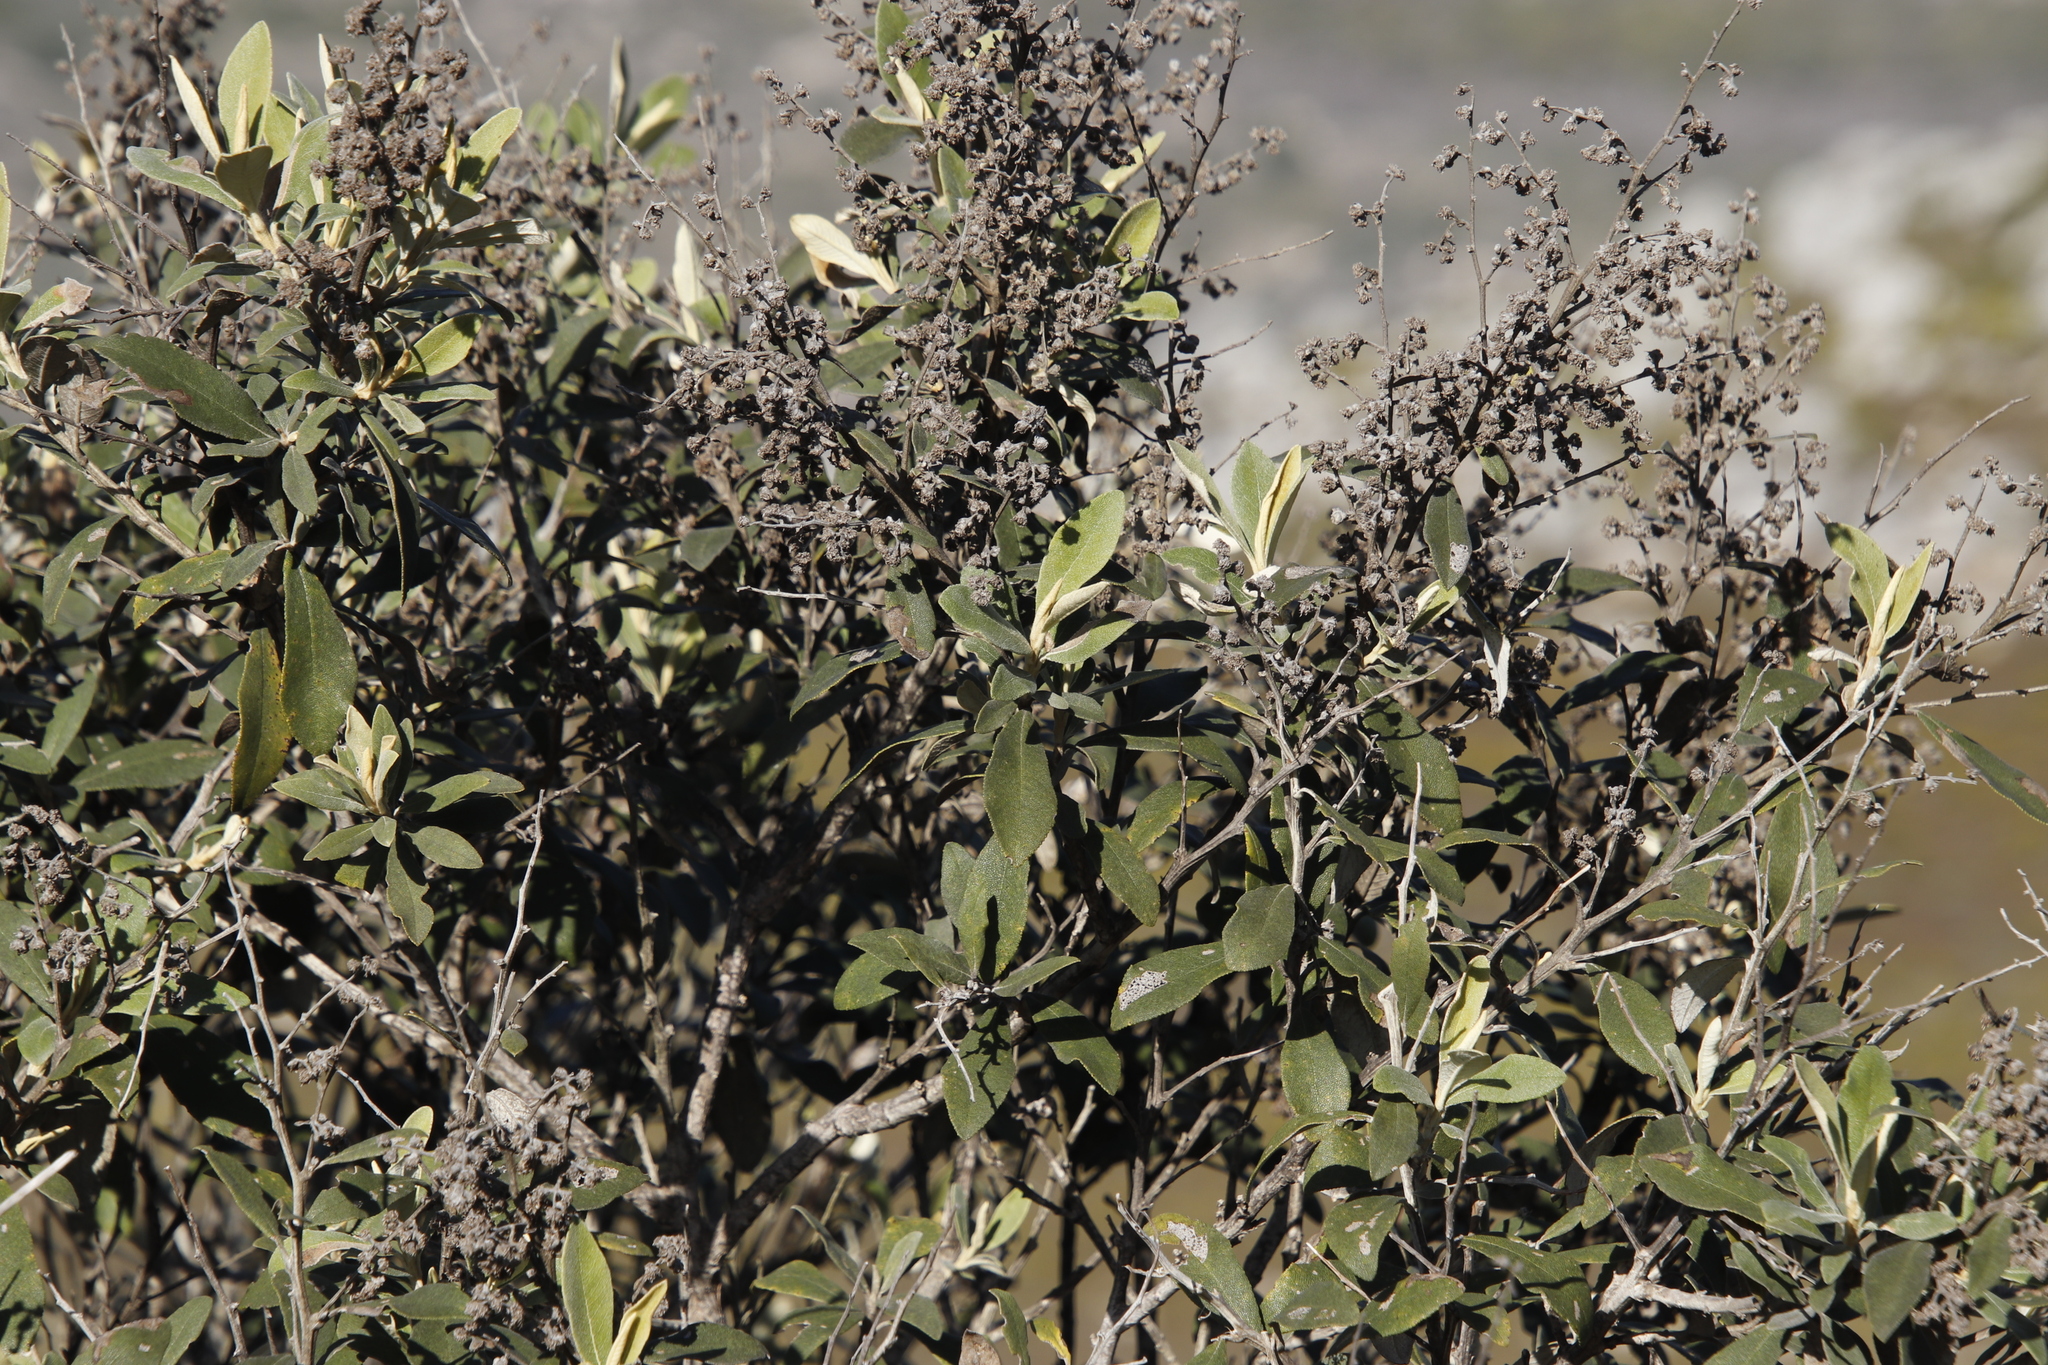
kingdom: Plantae
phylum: Tracheophyta
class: Magnoliopsida
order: Asterales
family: Asteraceae
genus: Tarchonanthus
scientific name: Tarchonanthus littoralis
